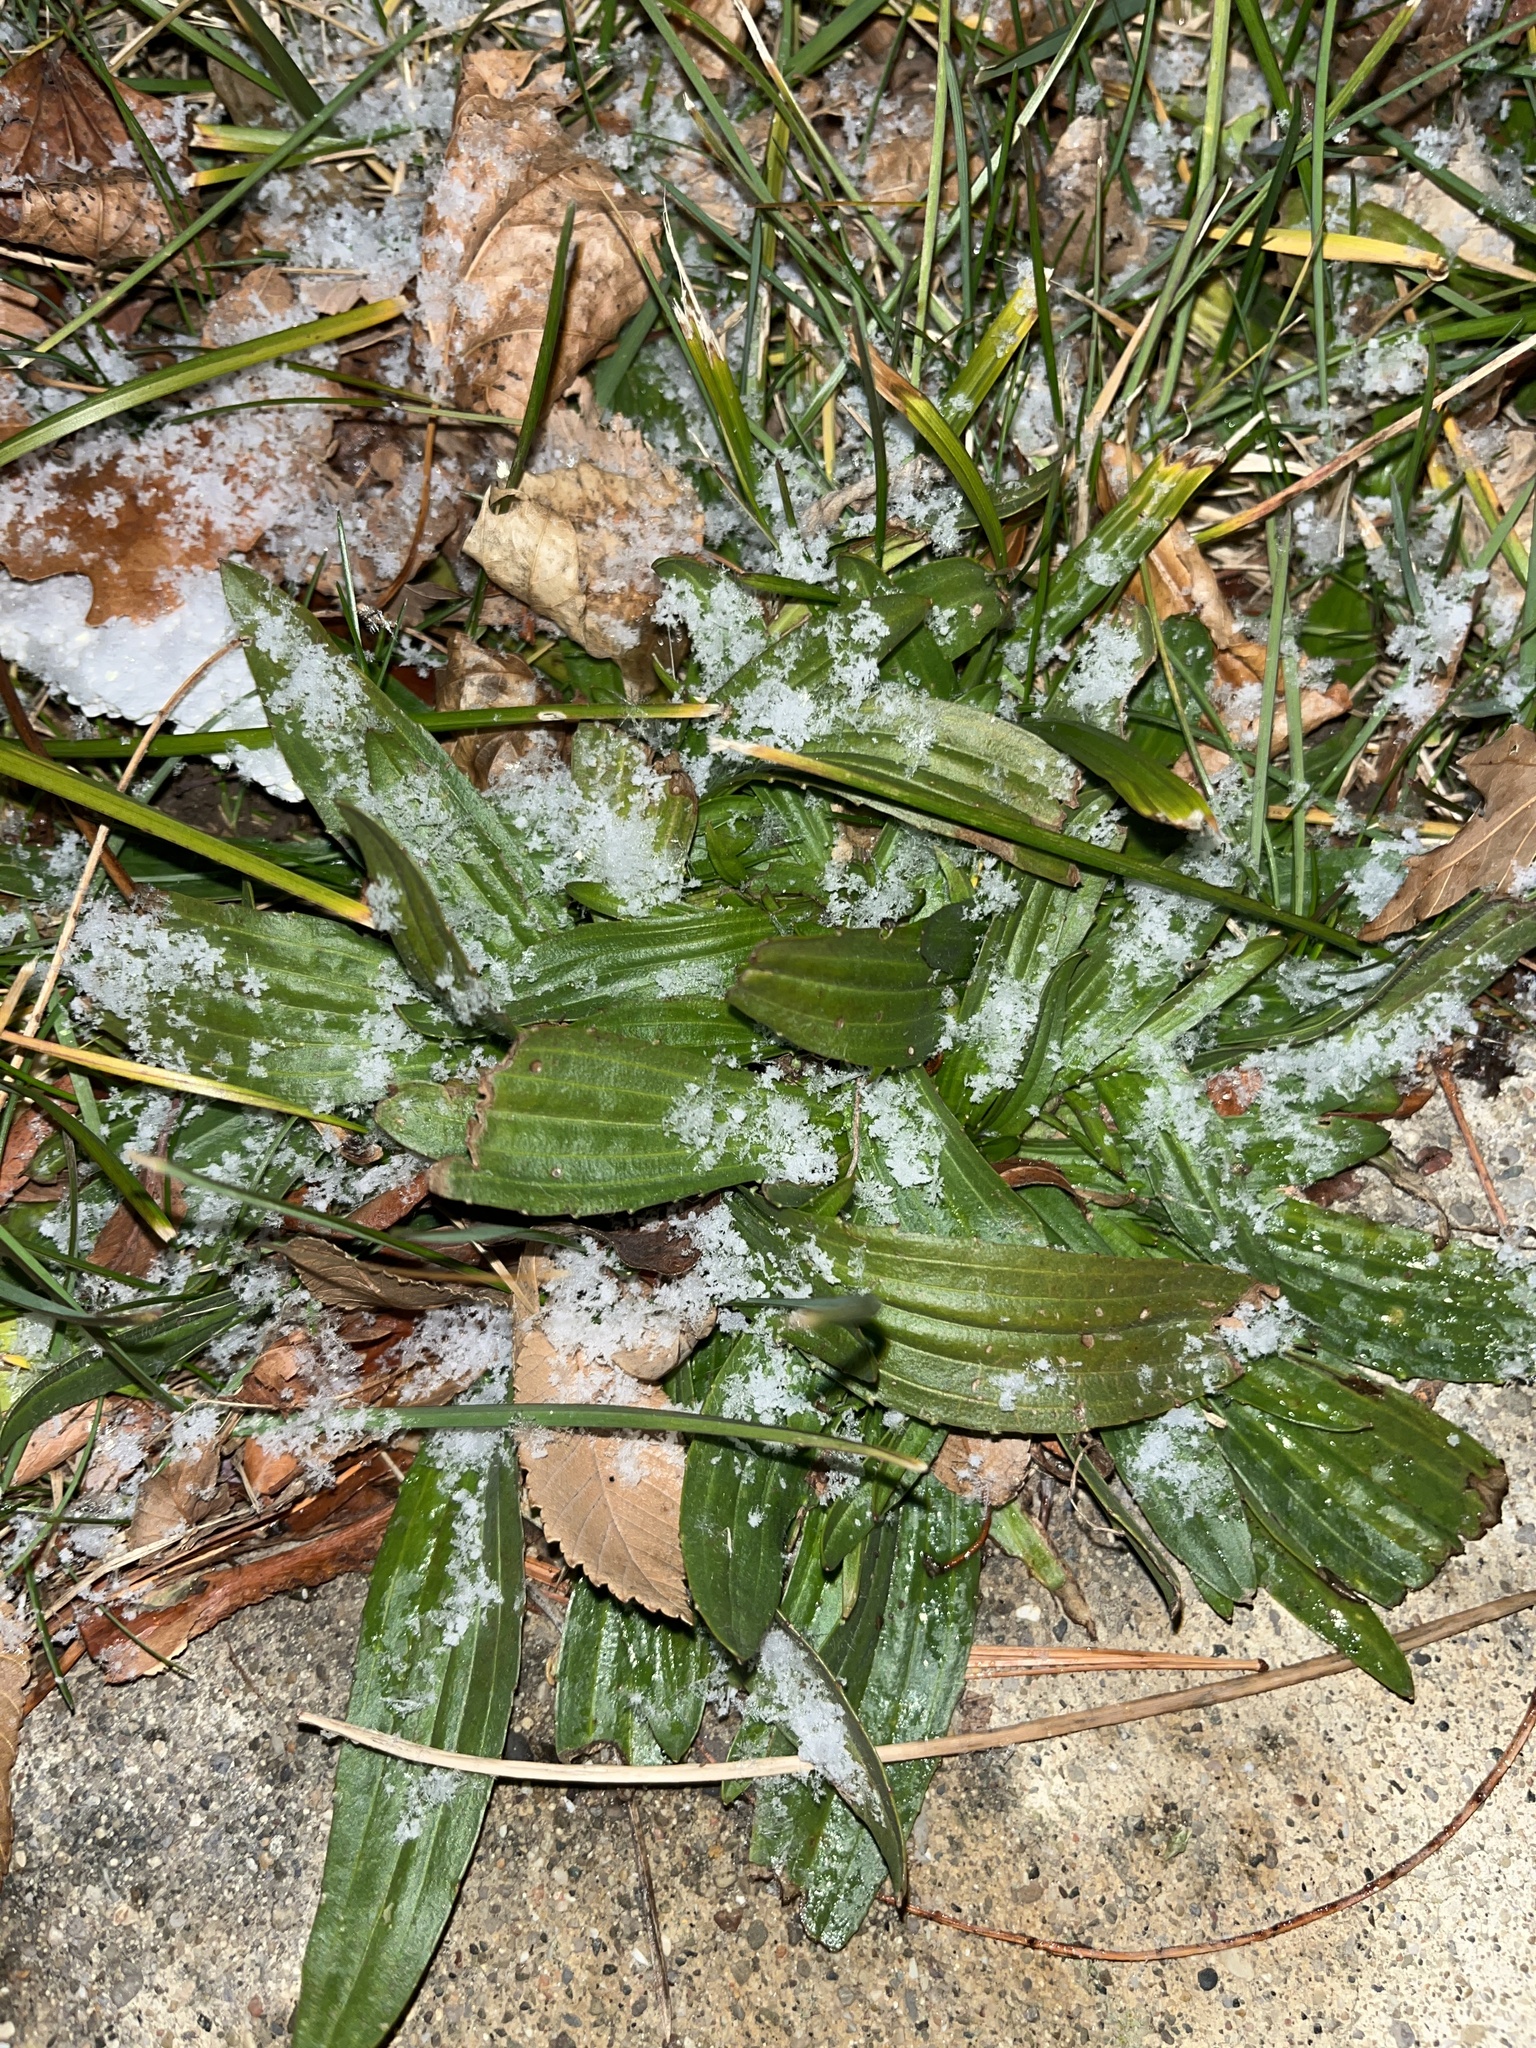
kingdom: Plantae
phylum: Tracheophyta
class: Magnoliopsida
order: Lamiales
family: Plantaginaceae
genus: Plantago
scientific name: Plantago lanceolata
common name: Ribwort plantain
